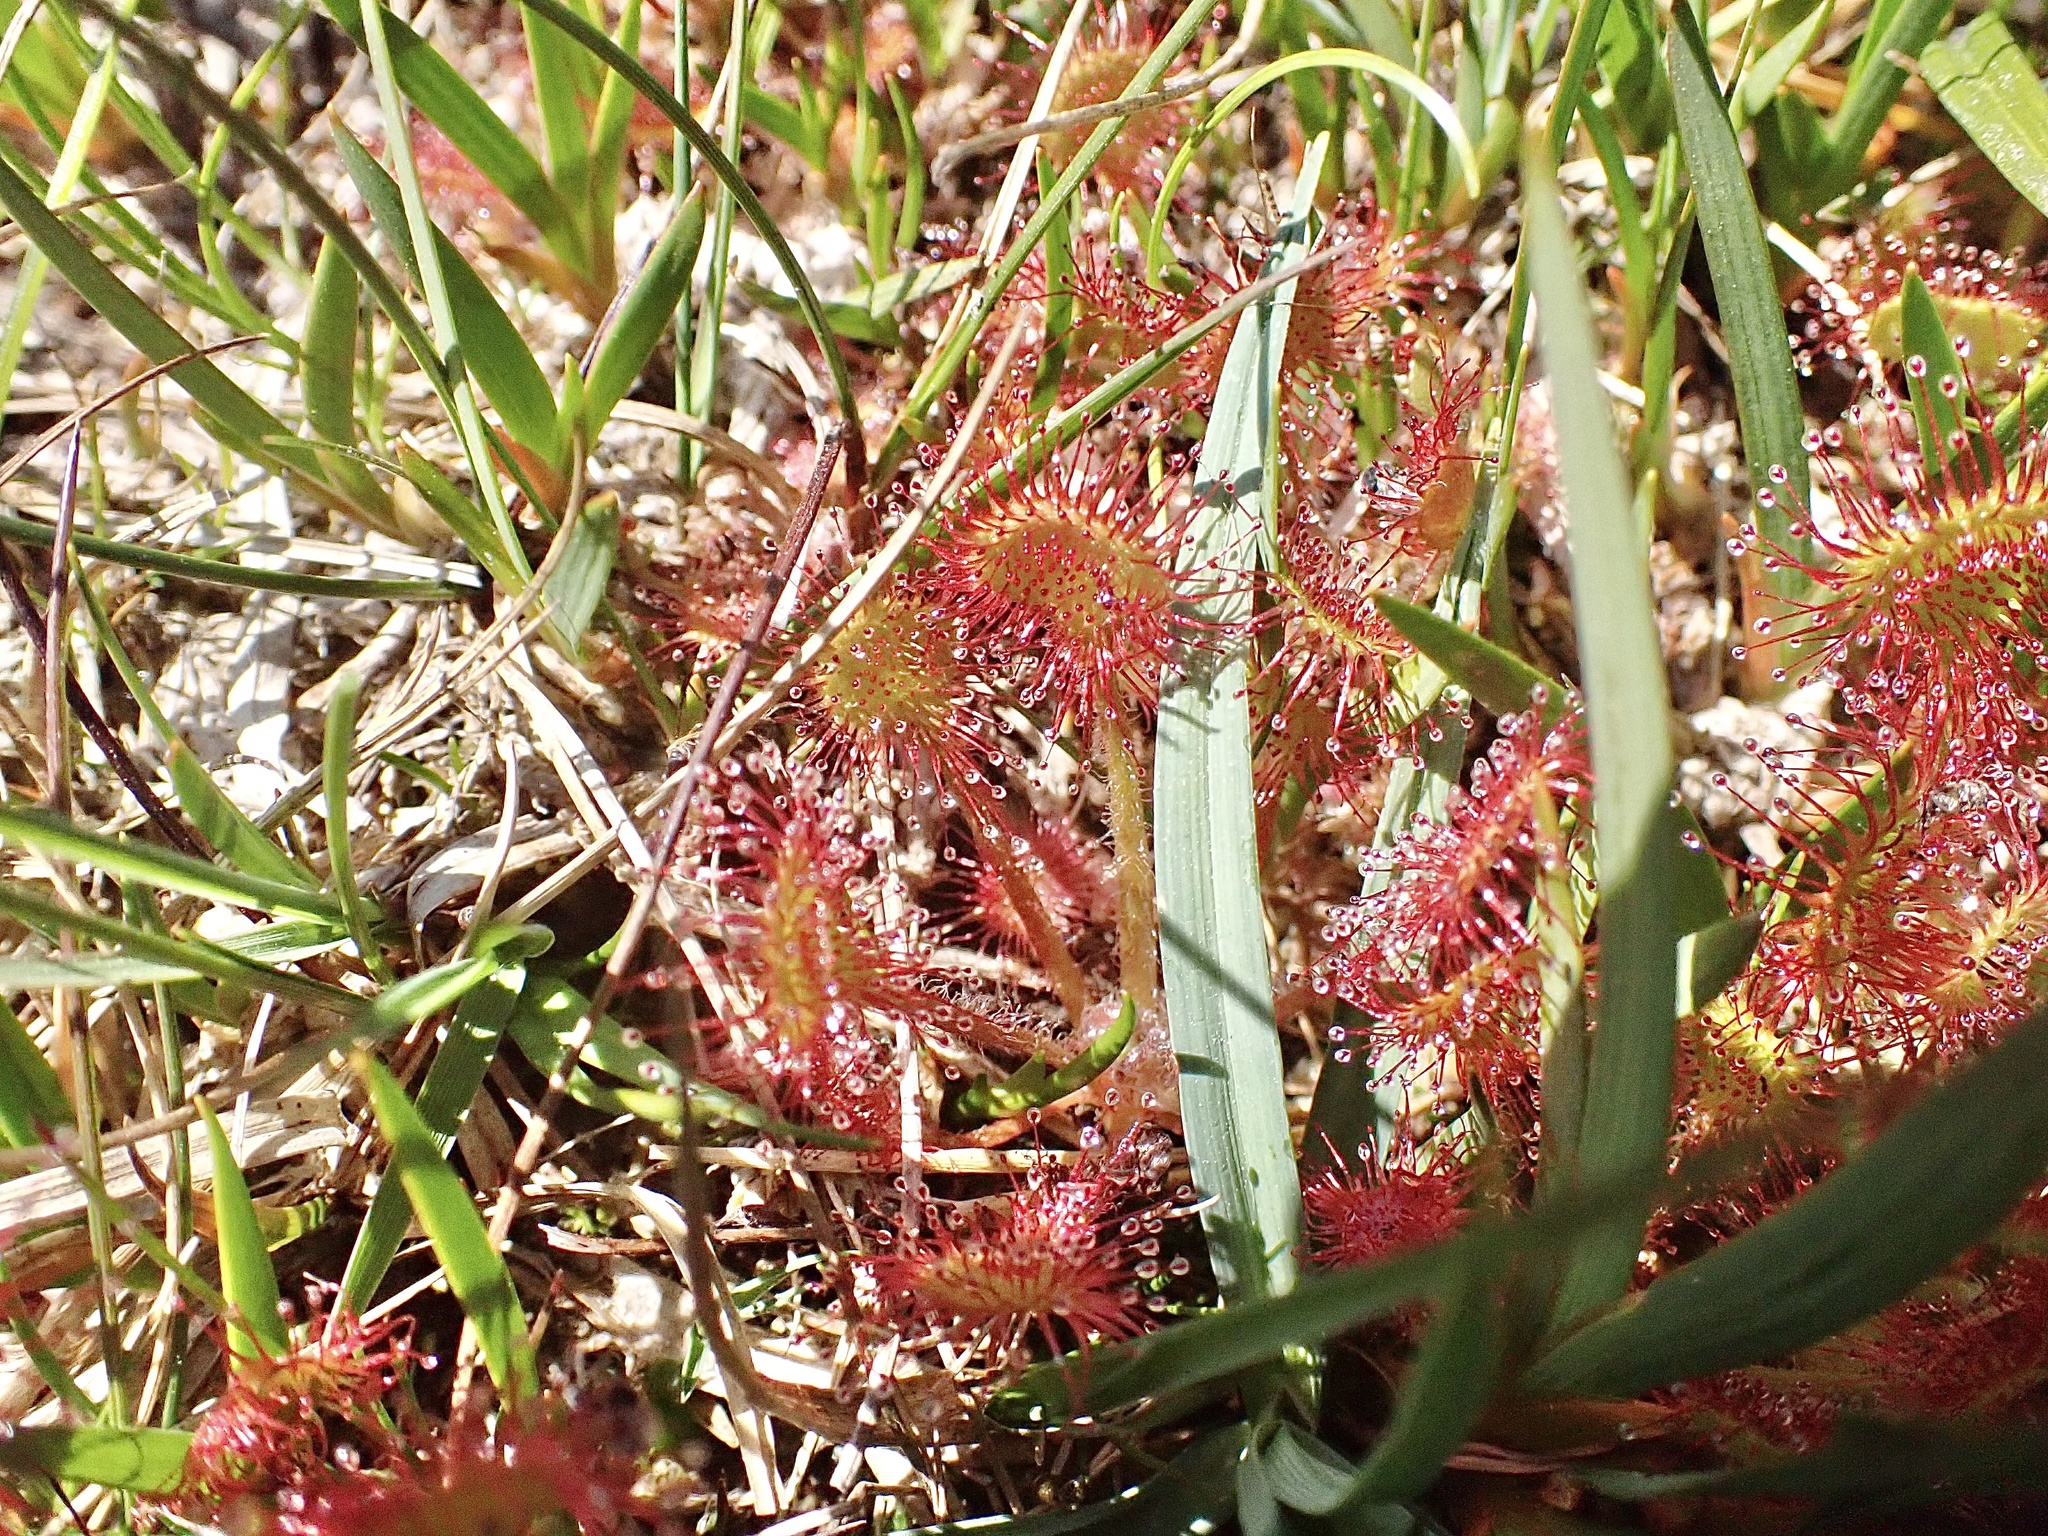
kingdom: Plantae
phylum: Tracheophyta
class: Magnoliopsida
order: Caryophyllales
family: Droseraceae
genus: Drosera
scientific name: Drosera rotundifolia
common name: Round-leaved sundew
